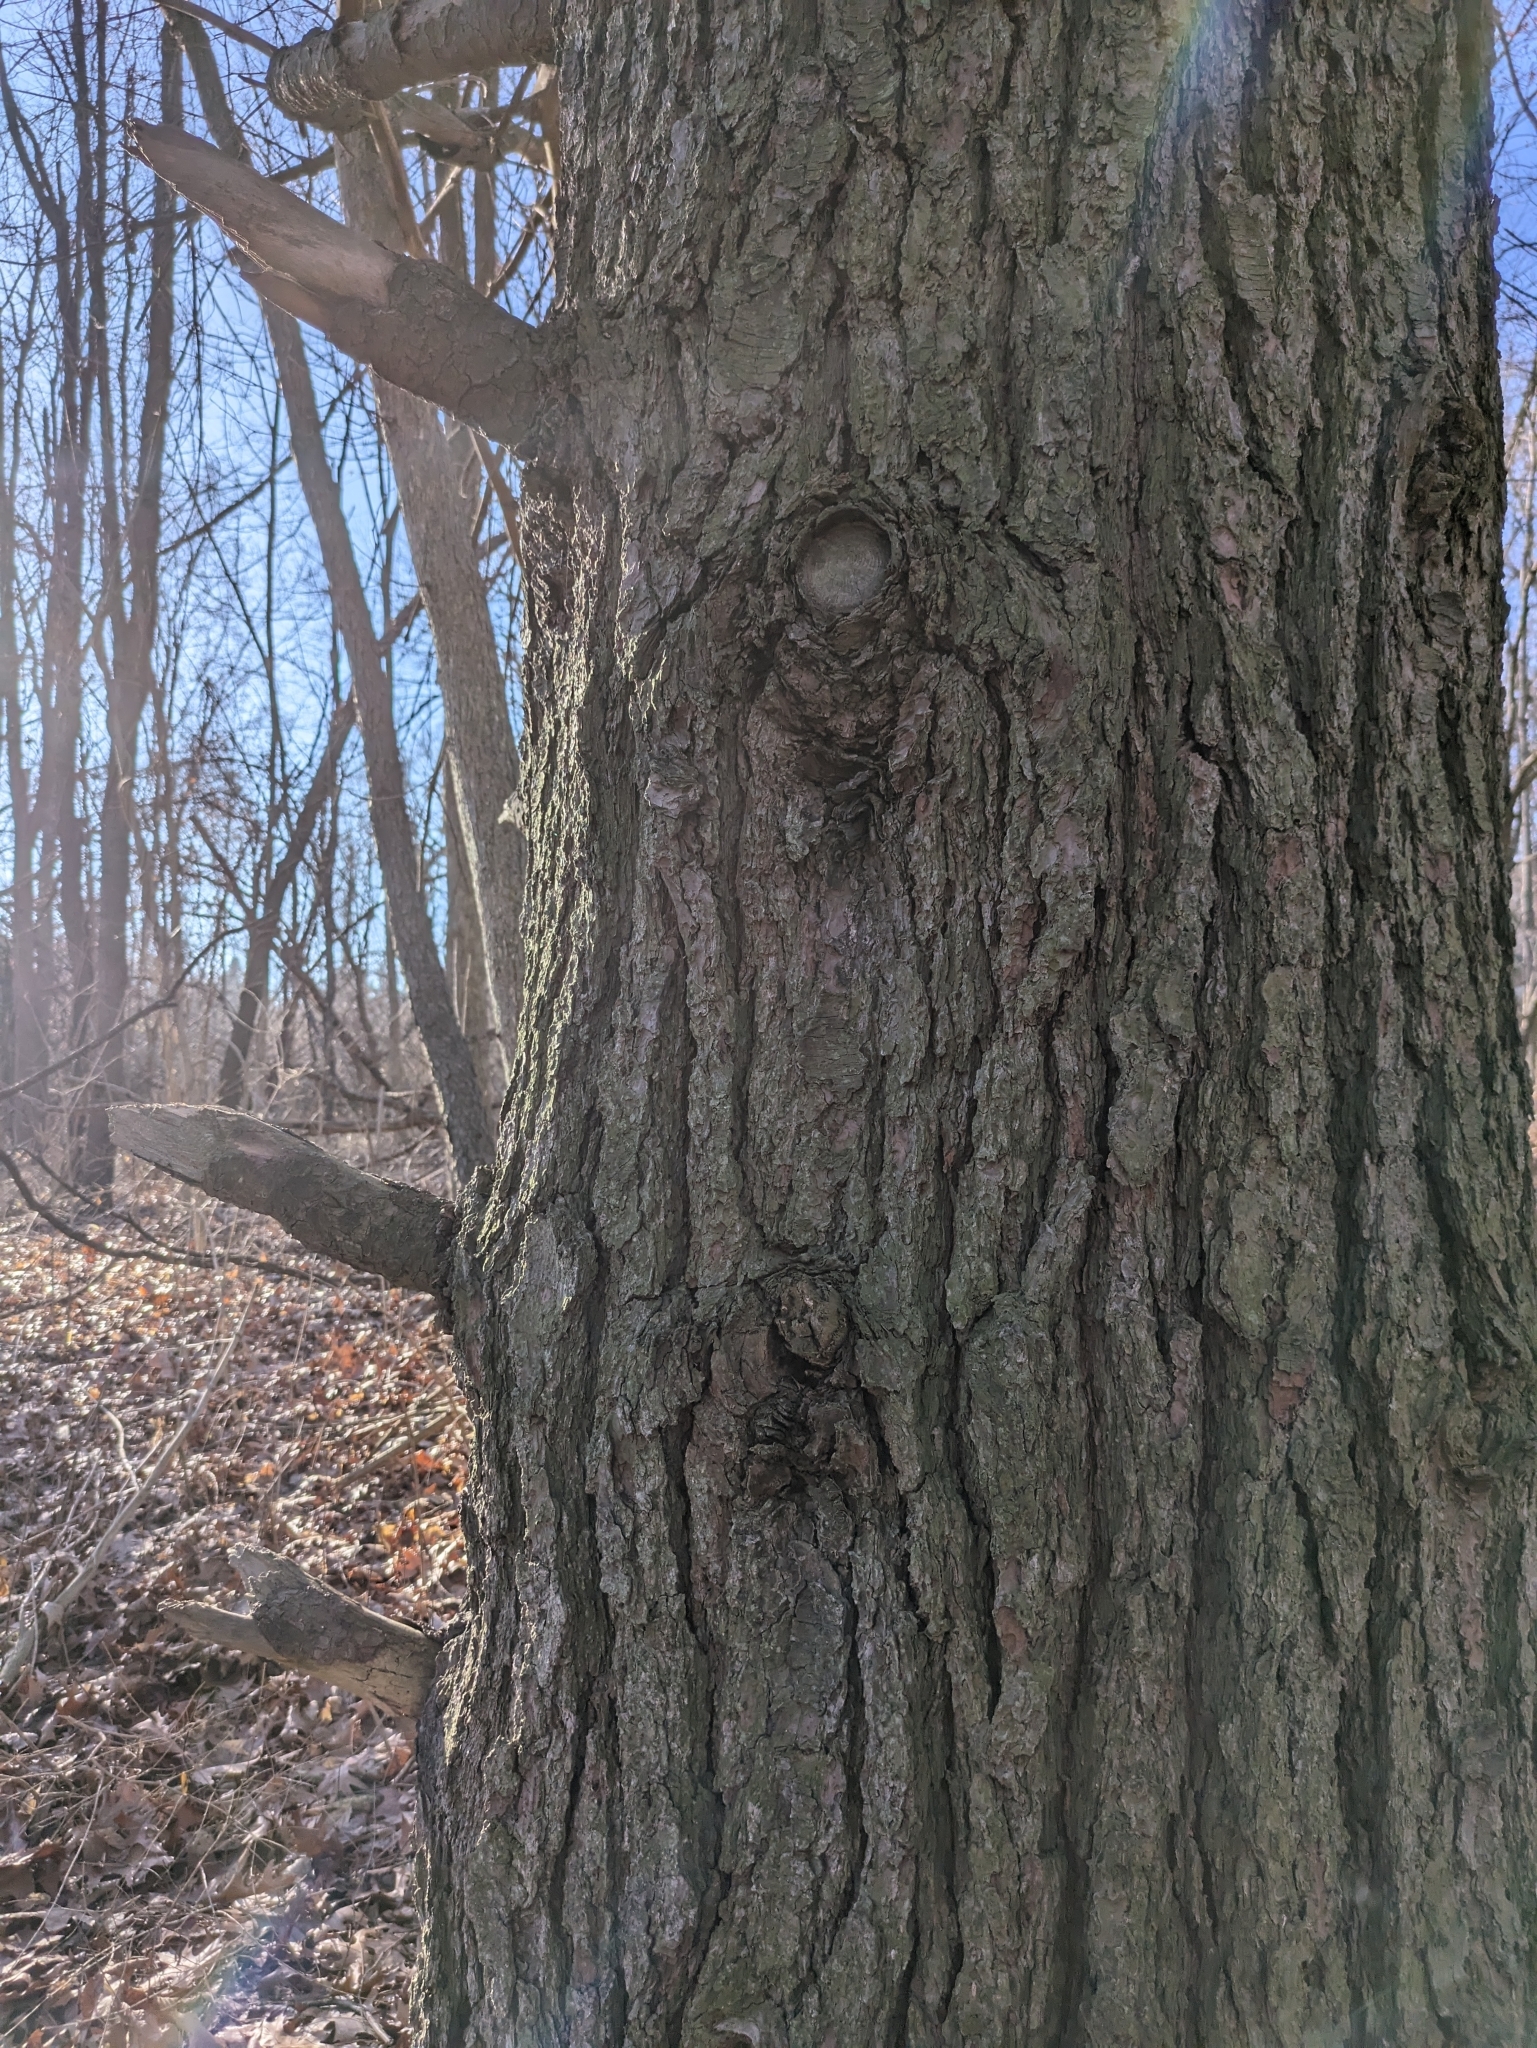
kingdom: Plantae
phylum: Tracheophyta
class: Pinopsida
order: Pinales
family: Pinaceae
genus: Pinus
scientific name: Pinus strobus
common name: Weymouth pine
